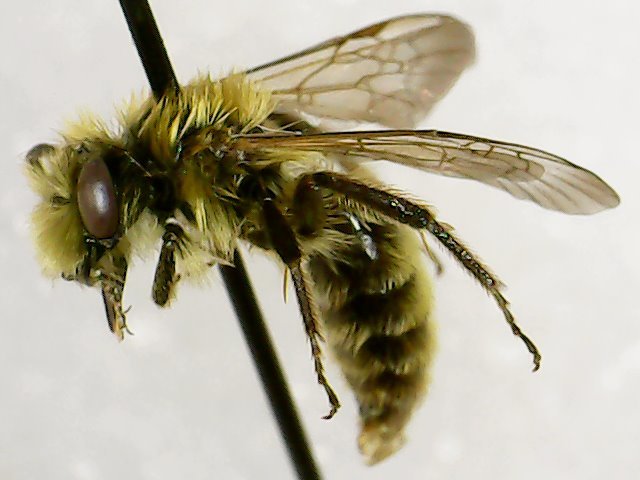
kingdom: Animalia
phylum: Arthropoda
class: Insecta
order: Hymenoptera
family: Andrenidae
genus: Andrena
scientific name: Andrena hirticincta
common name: Hairy-banded mining bee
